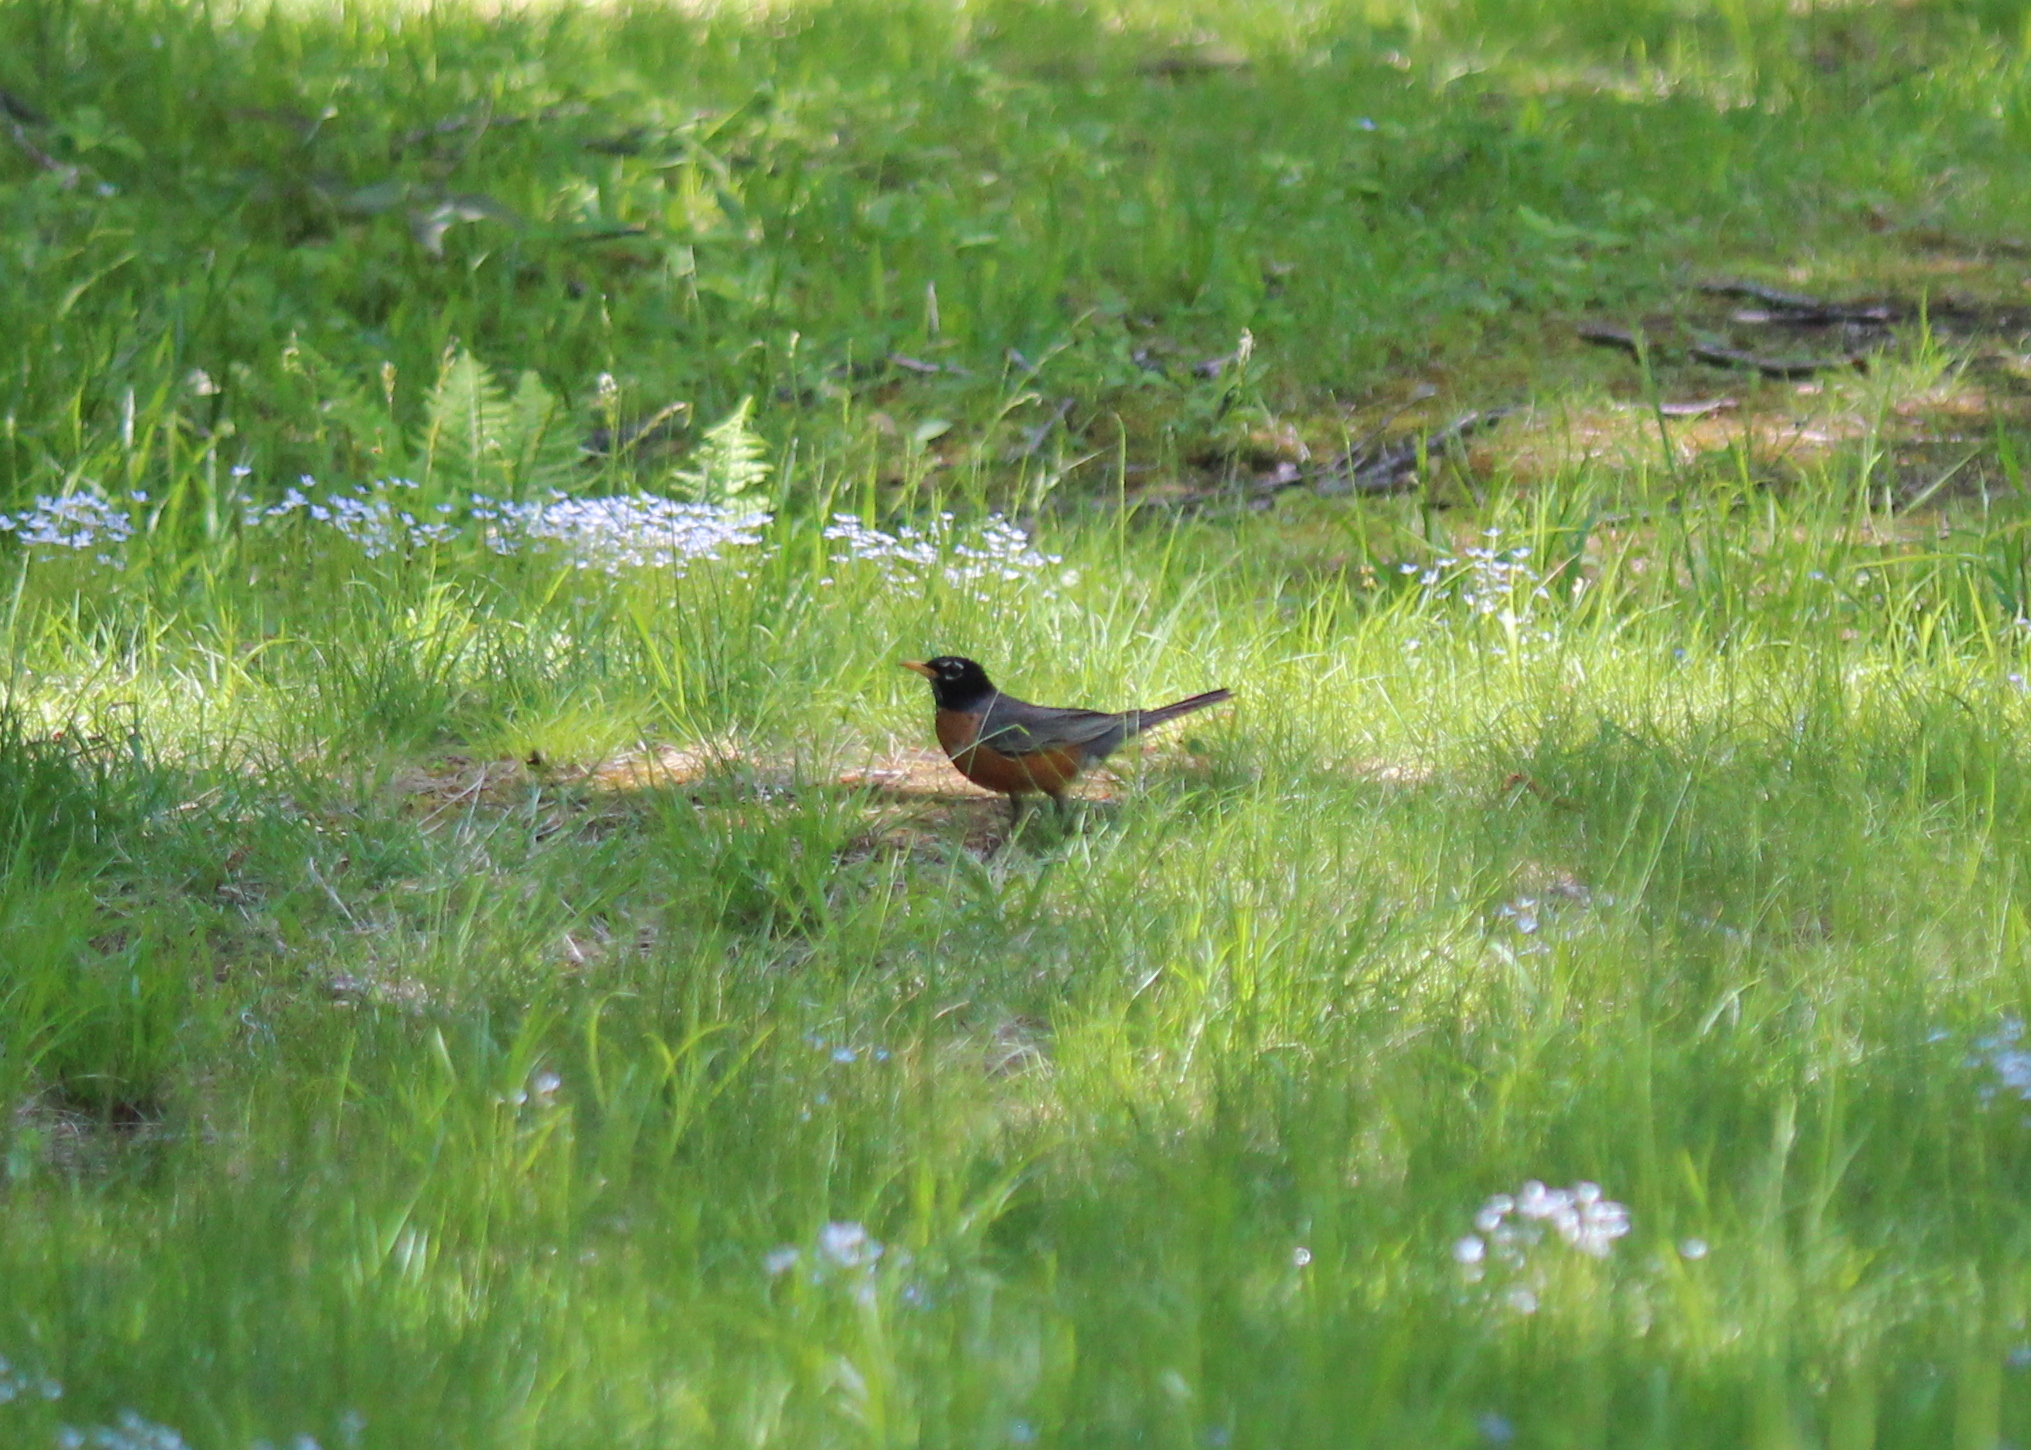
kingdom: Animalia
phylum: Chordata
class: Aves
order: Passeriformes
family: Turdidae
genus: Turdus
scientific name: Turdus migratorius
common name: American robin
